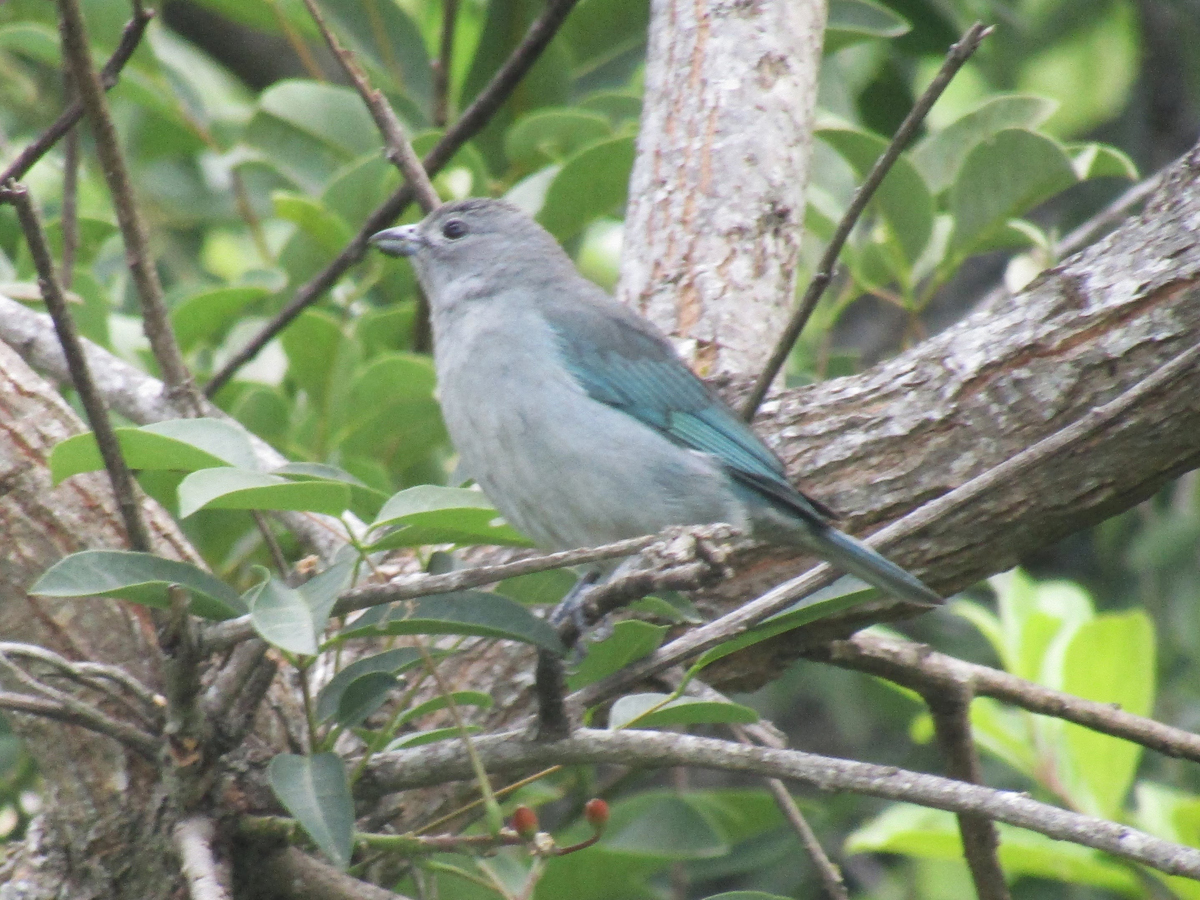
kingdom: Animalia
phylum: Chordata
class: Aves
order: Passeriformes
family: Thraupidae
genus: Thraupis
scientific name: Thraupis sayaca
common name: Sayaca tanager
